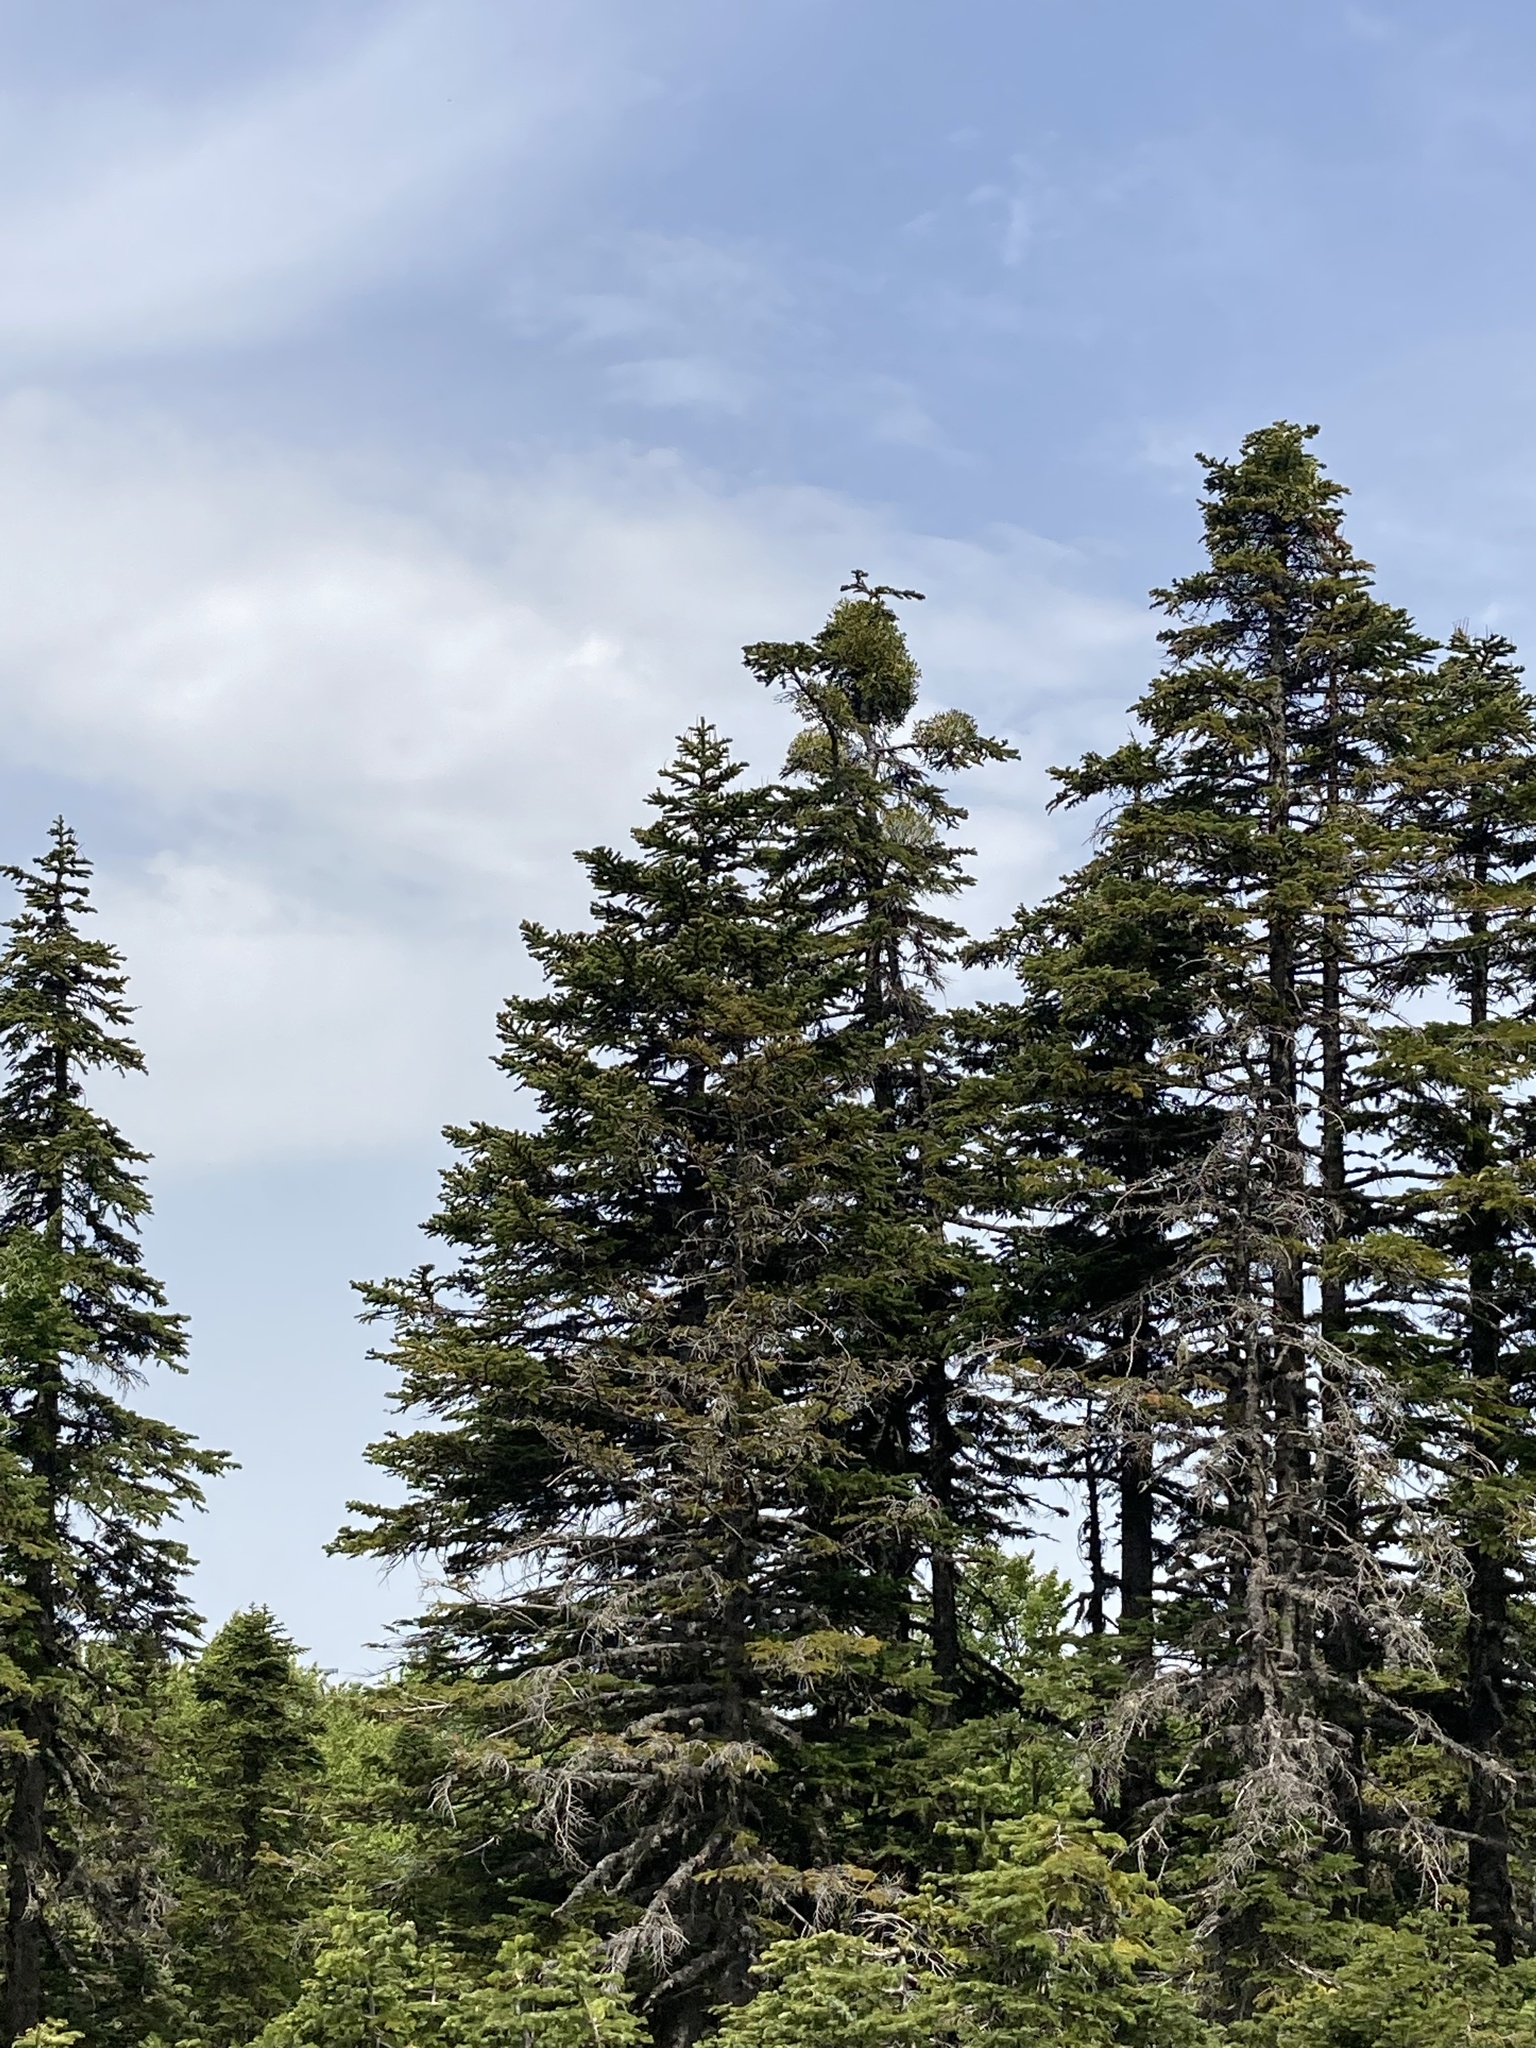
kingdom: Plantae
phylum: Tracheophyta
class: Magnoliopsida
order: Santalales
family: Viscaceae
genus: Viscum
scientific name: Viscum album
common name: Mistletoe
